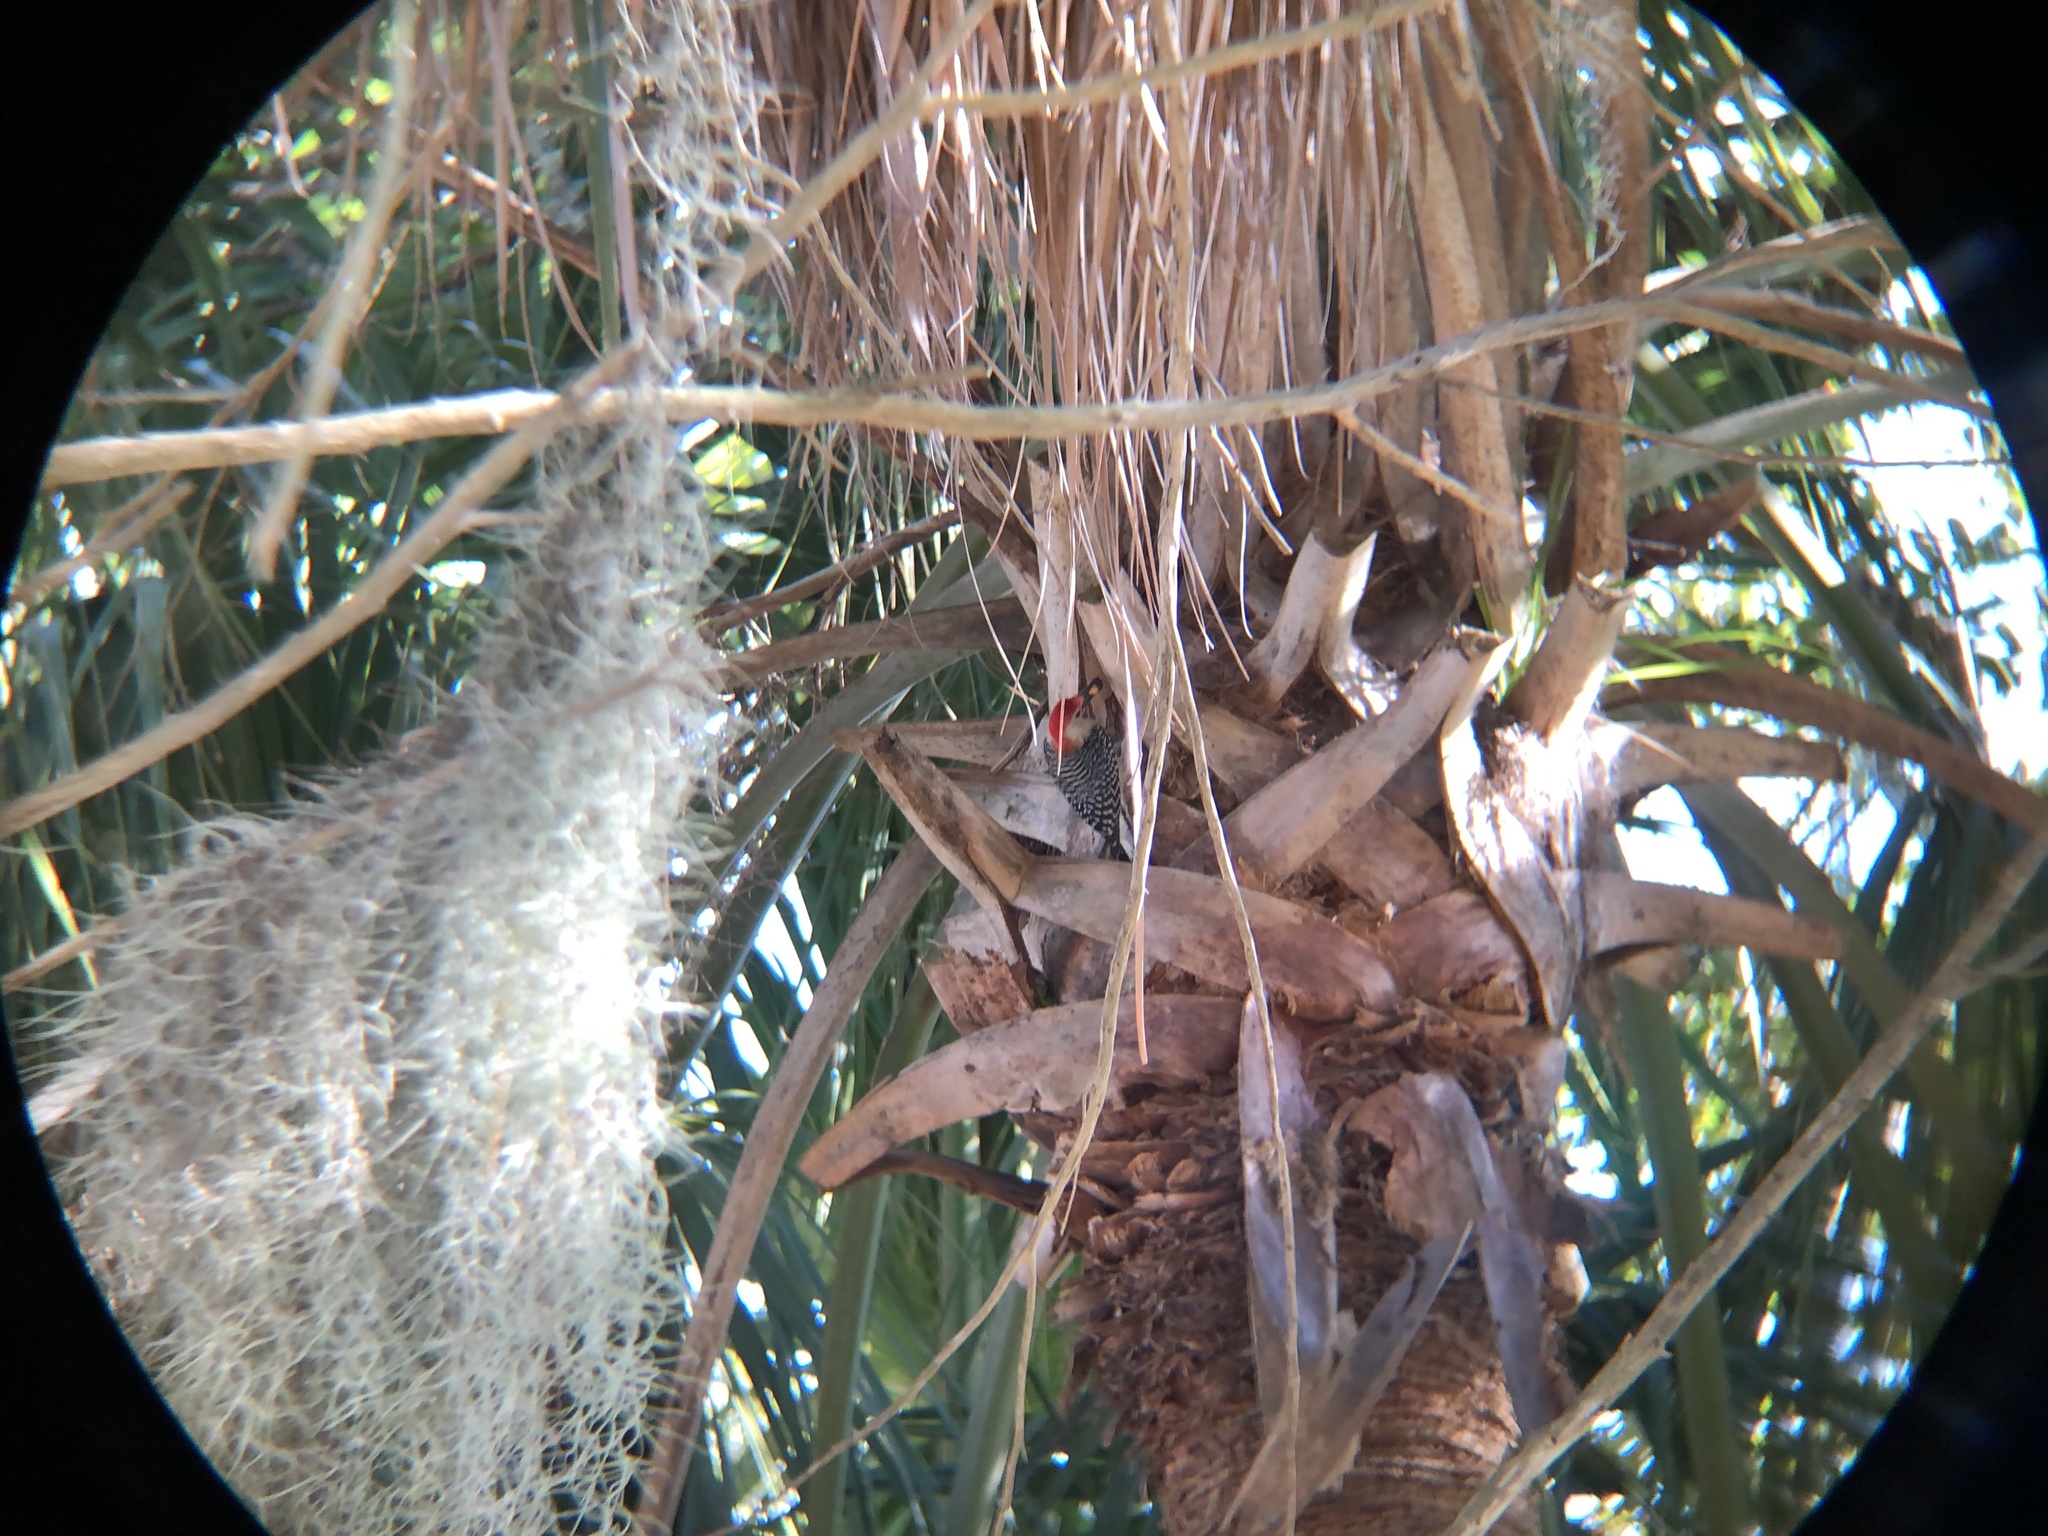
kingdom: Animalia
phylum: Chordata
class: Aves
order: Piciformes
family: Picidae
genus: Melanerpes
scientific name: Melanerpes carolinus
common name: Red-bellied woodpecker
